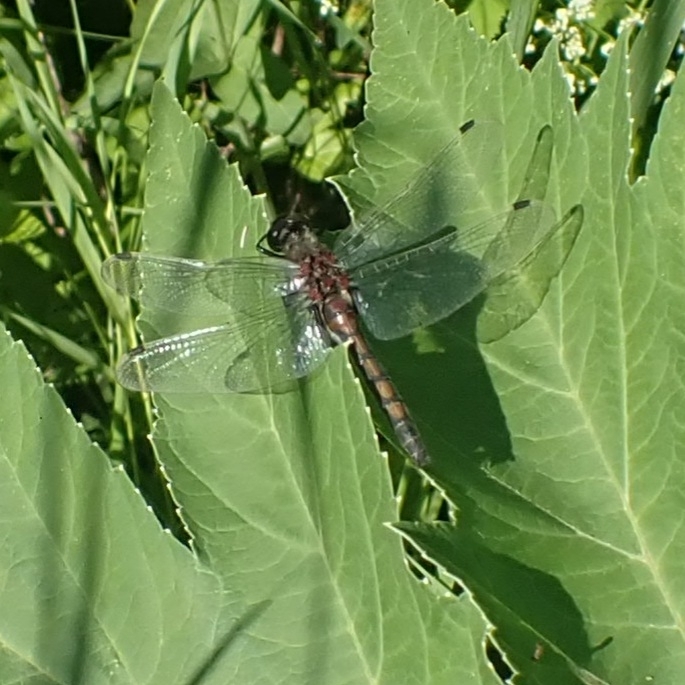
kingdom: Animalia
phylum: Arthropoda
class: Insecta
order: Odonata
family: Libellulidae
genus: Leucorrhinia
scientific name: Leucorrhinia rubicunda
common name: Ruby whiteface
